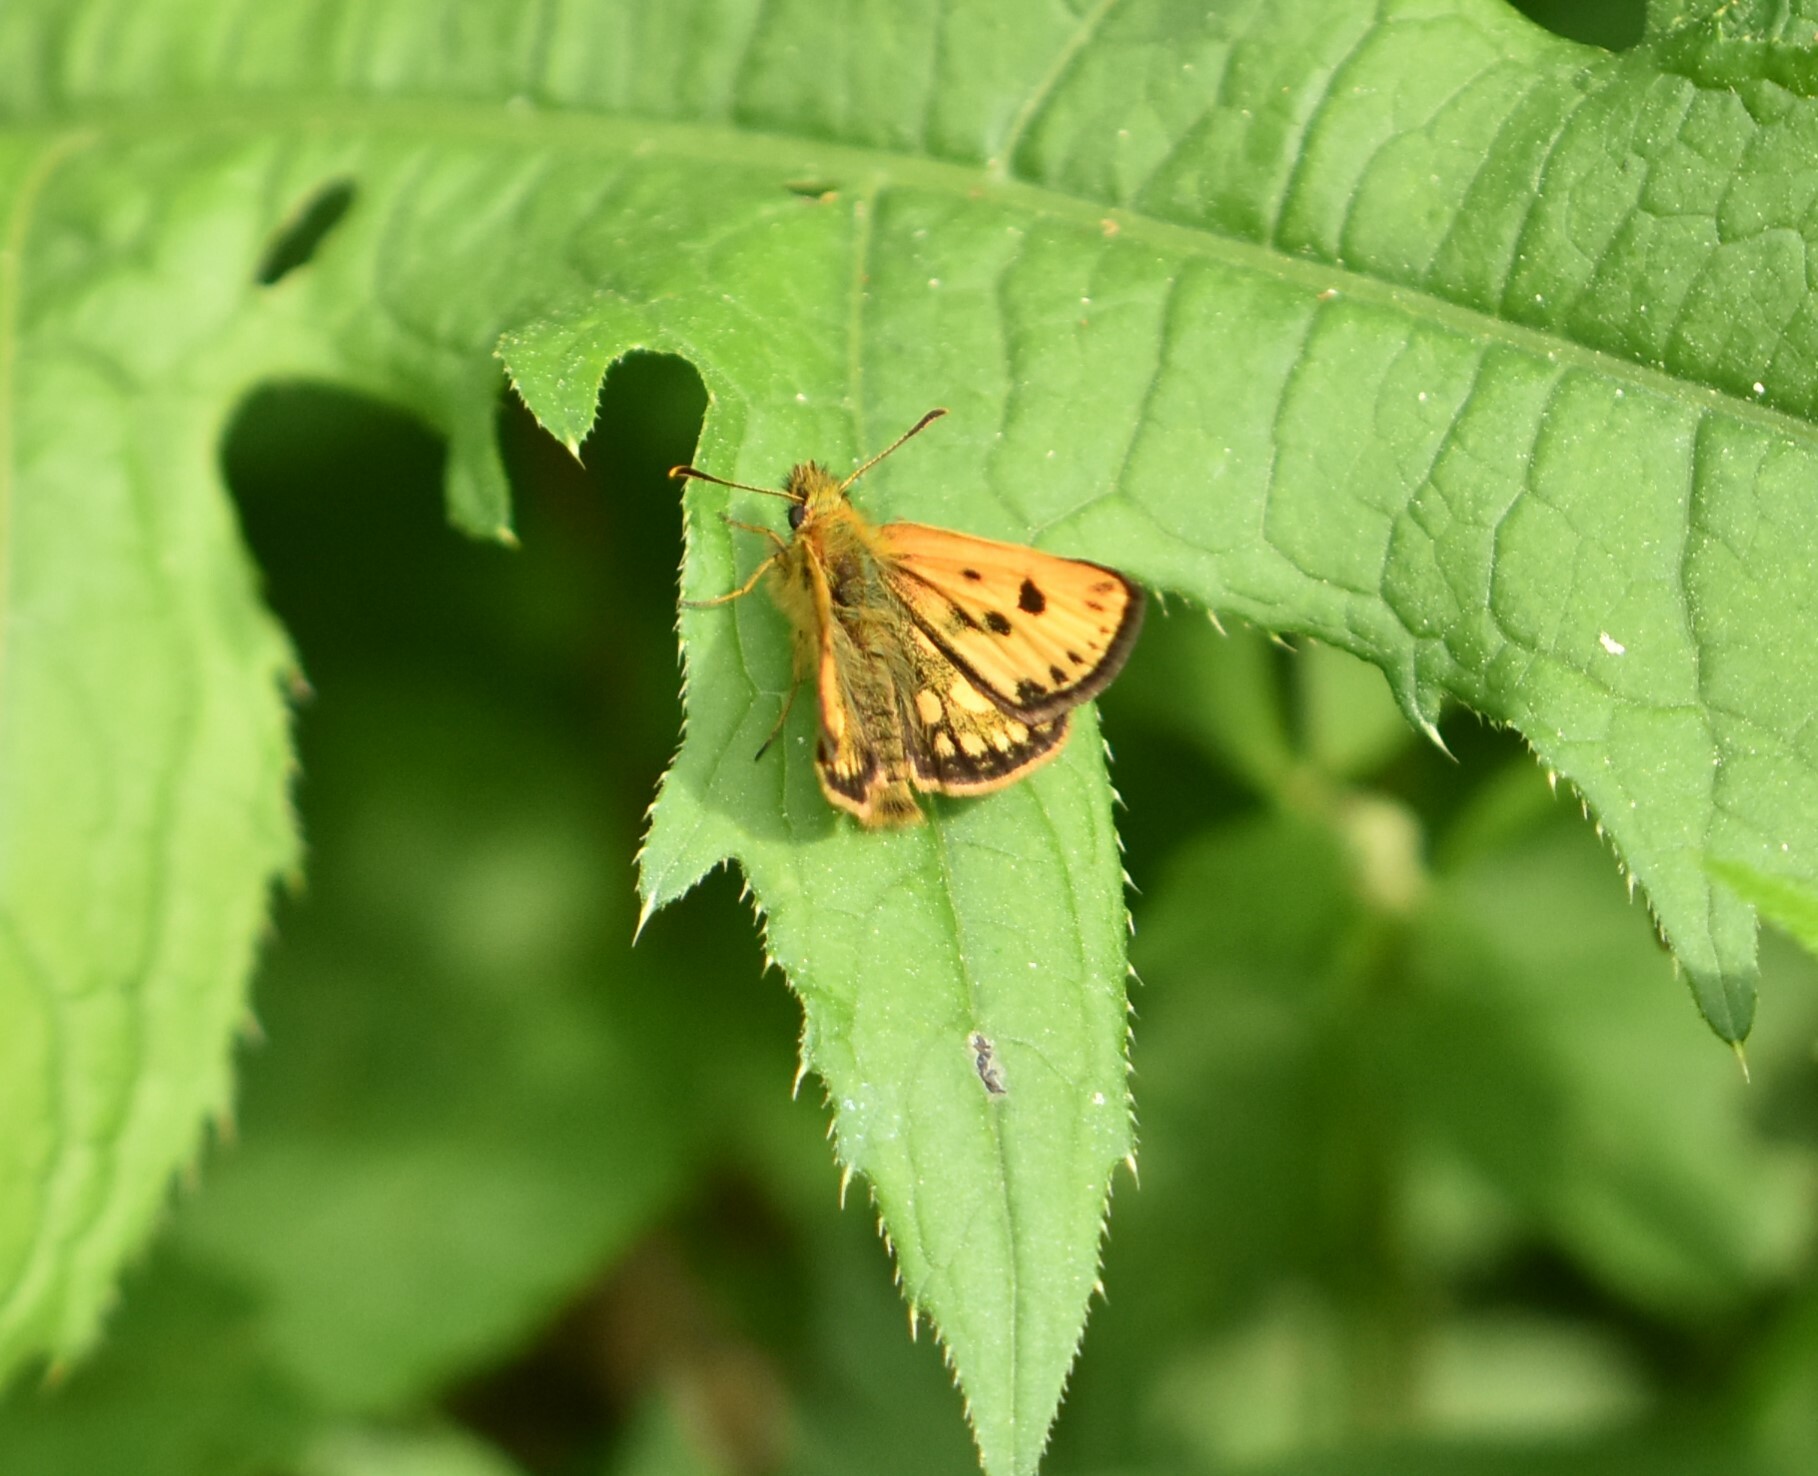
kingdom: Animalia
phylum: Arthropoda
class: Insecta
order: Lepidoptera
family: Hesperiidae
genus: Carterocephalus
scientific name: Carterocephalus silvicola
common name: Northern chequered skipper
